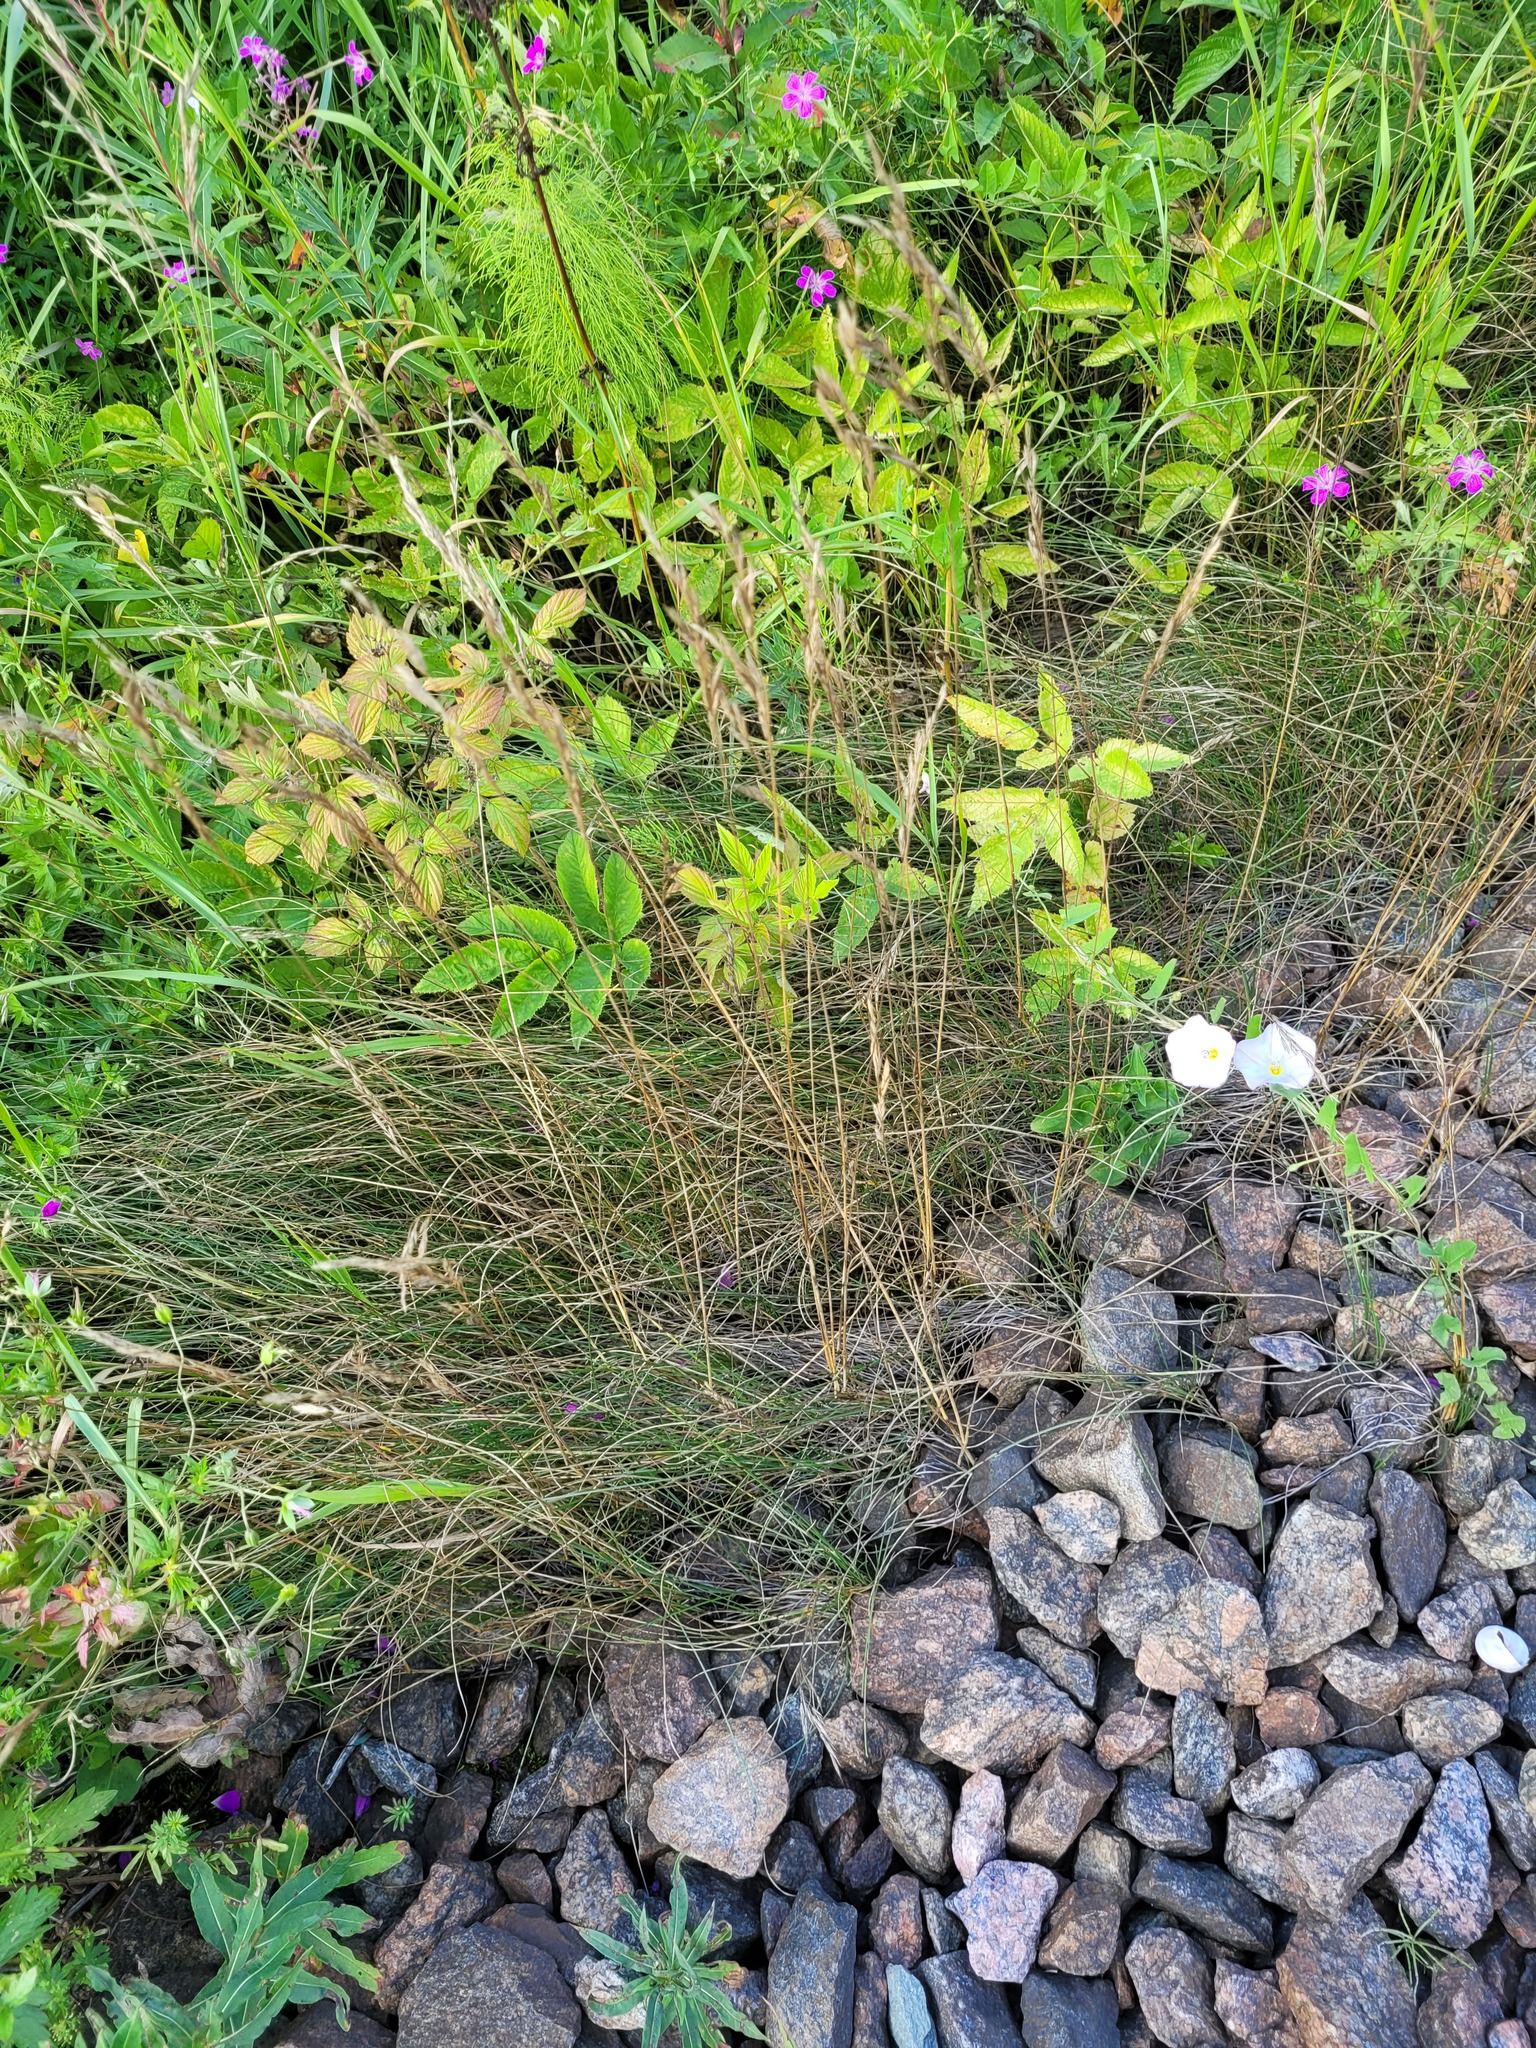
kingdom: Plantae
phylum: Tracheophyta
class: Liliopsida
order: Poales
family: Poaceae
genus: Festuca
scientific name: Festuca rubra
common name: Red fescue
